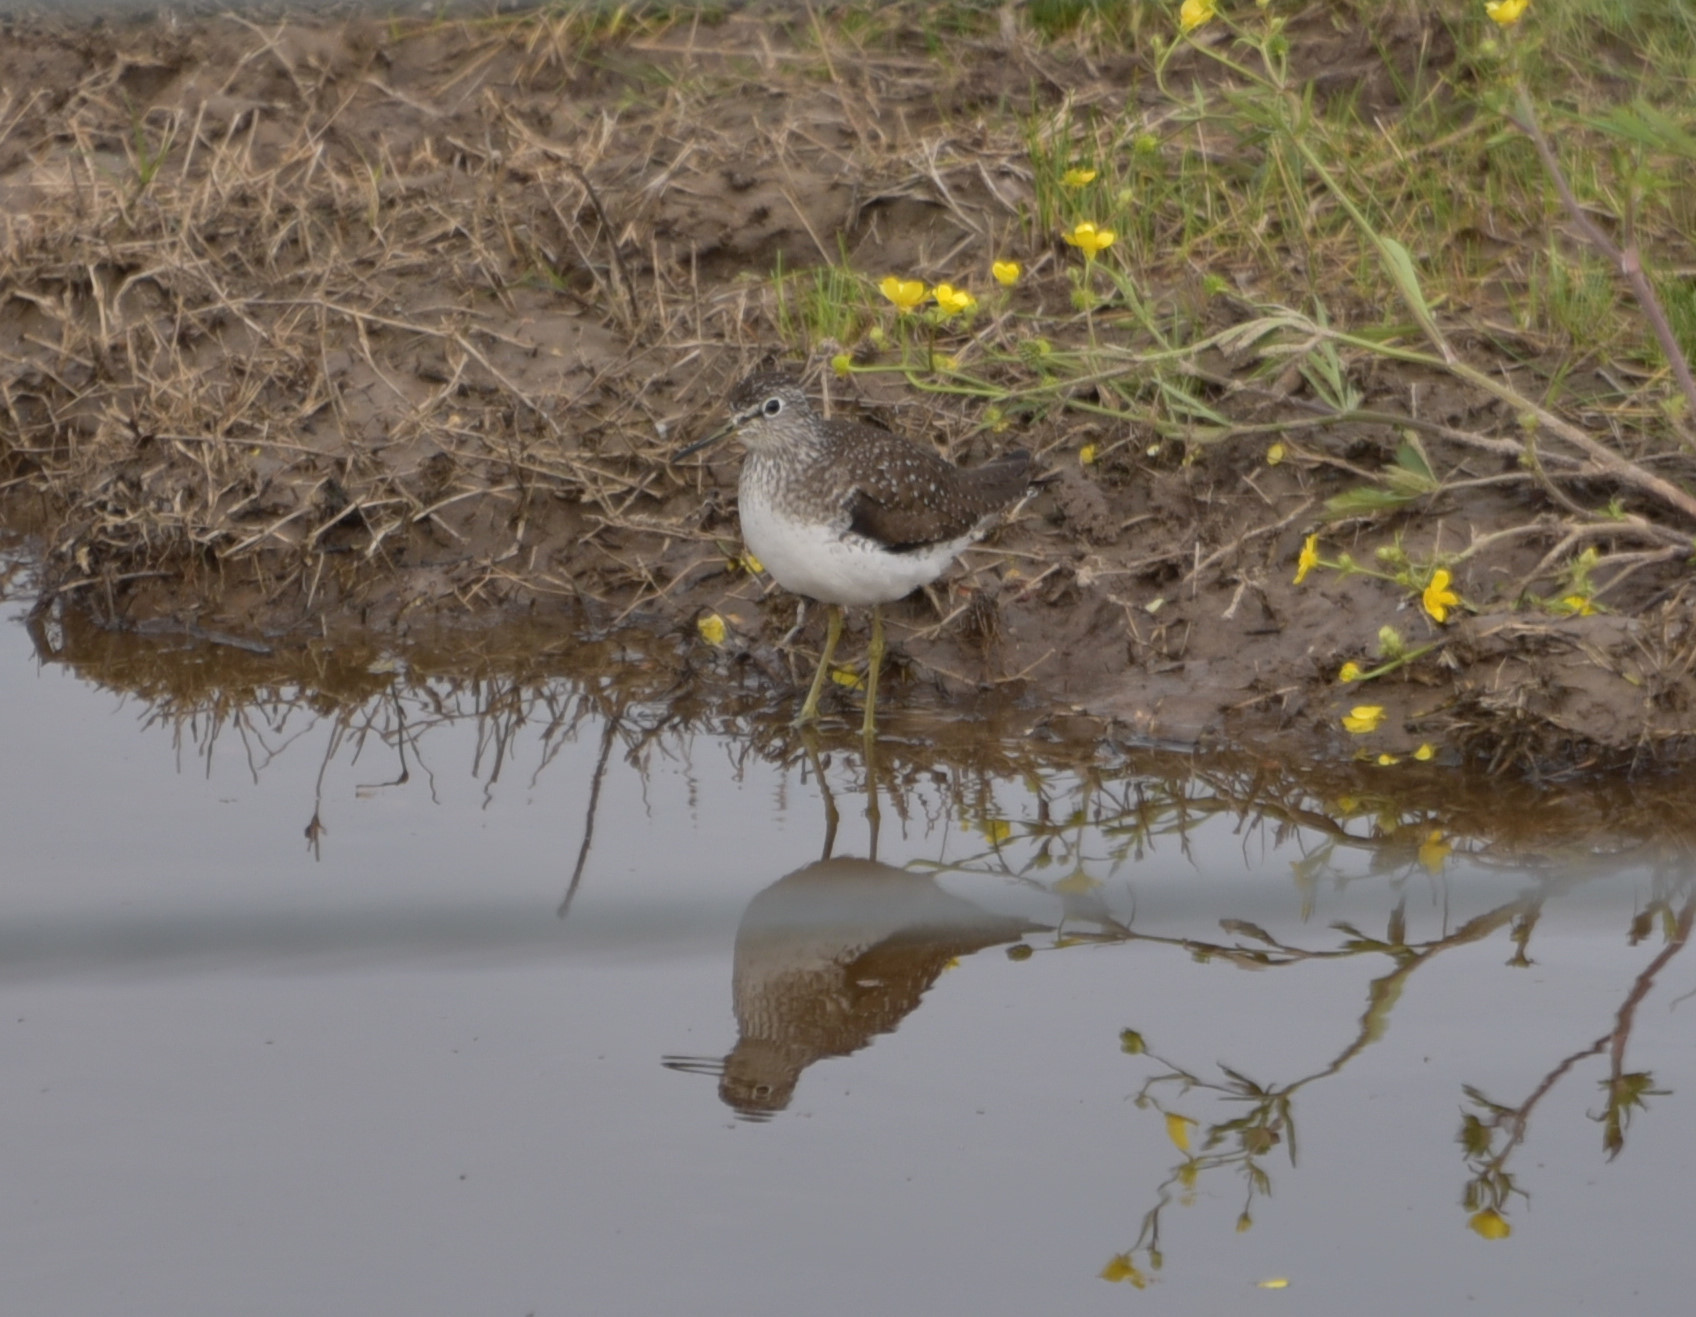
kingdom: Animalia
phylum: Chordata
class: Aves
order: Charadriiformes
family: Scolopacidae
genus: Tringa
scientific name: Tringa solitaria
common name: Solitary sandpiper
